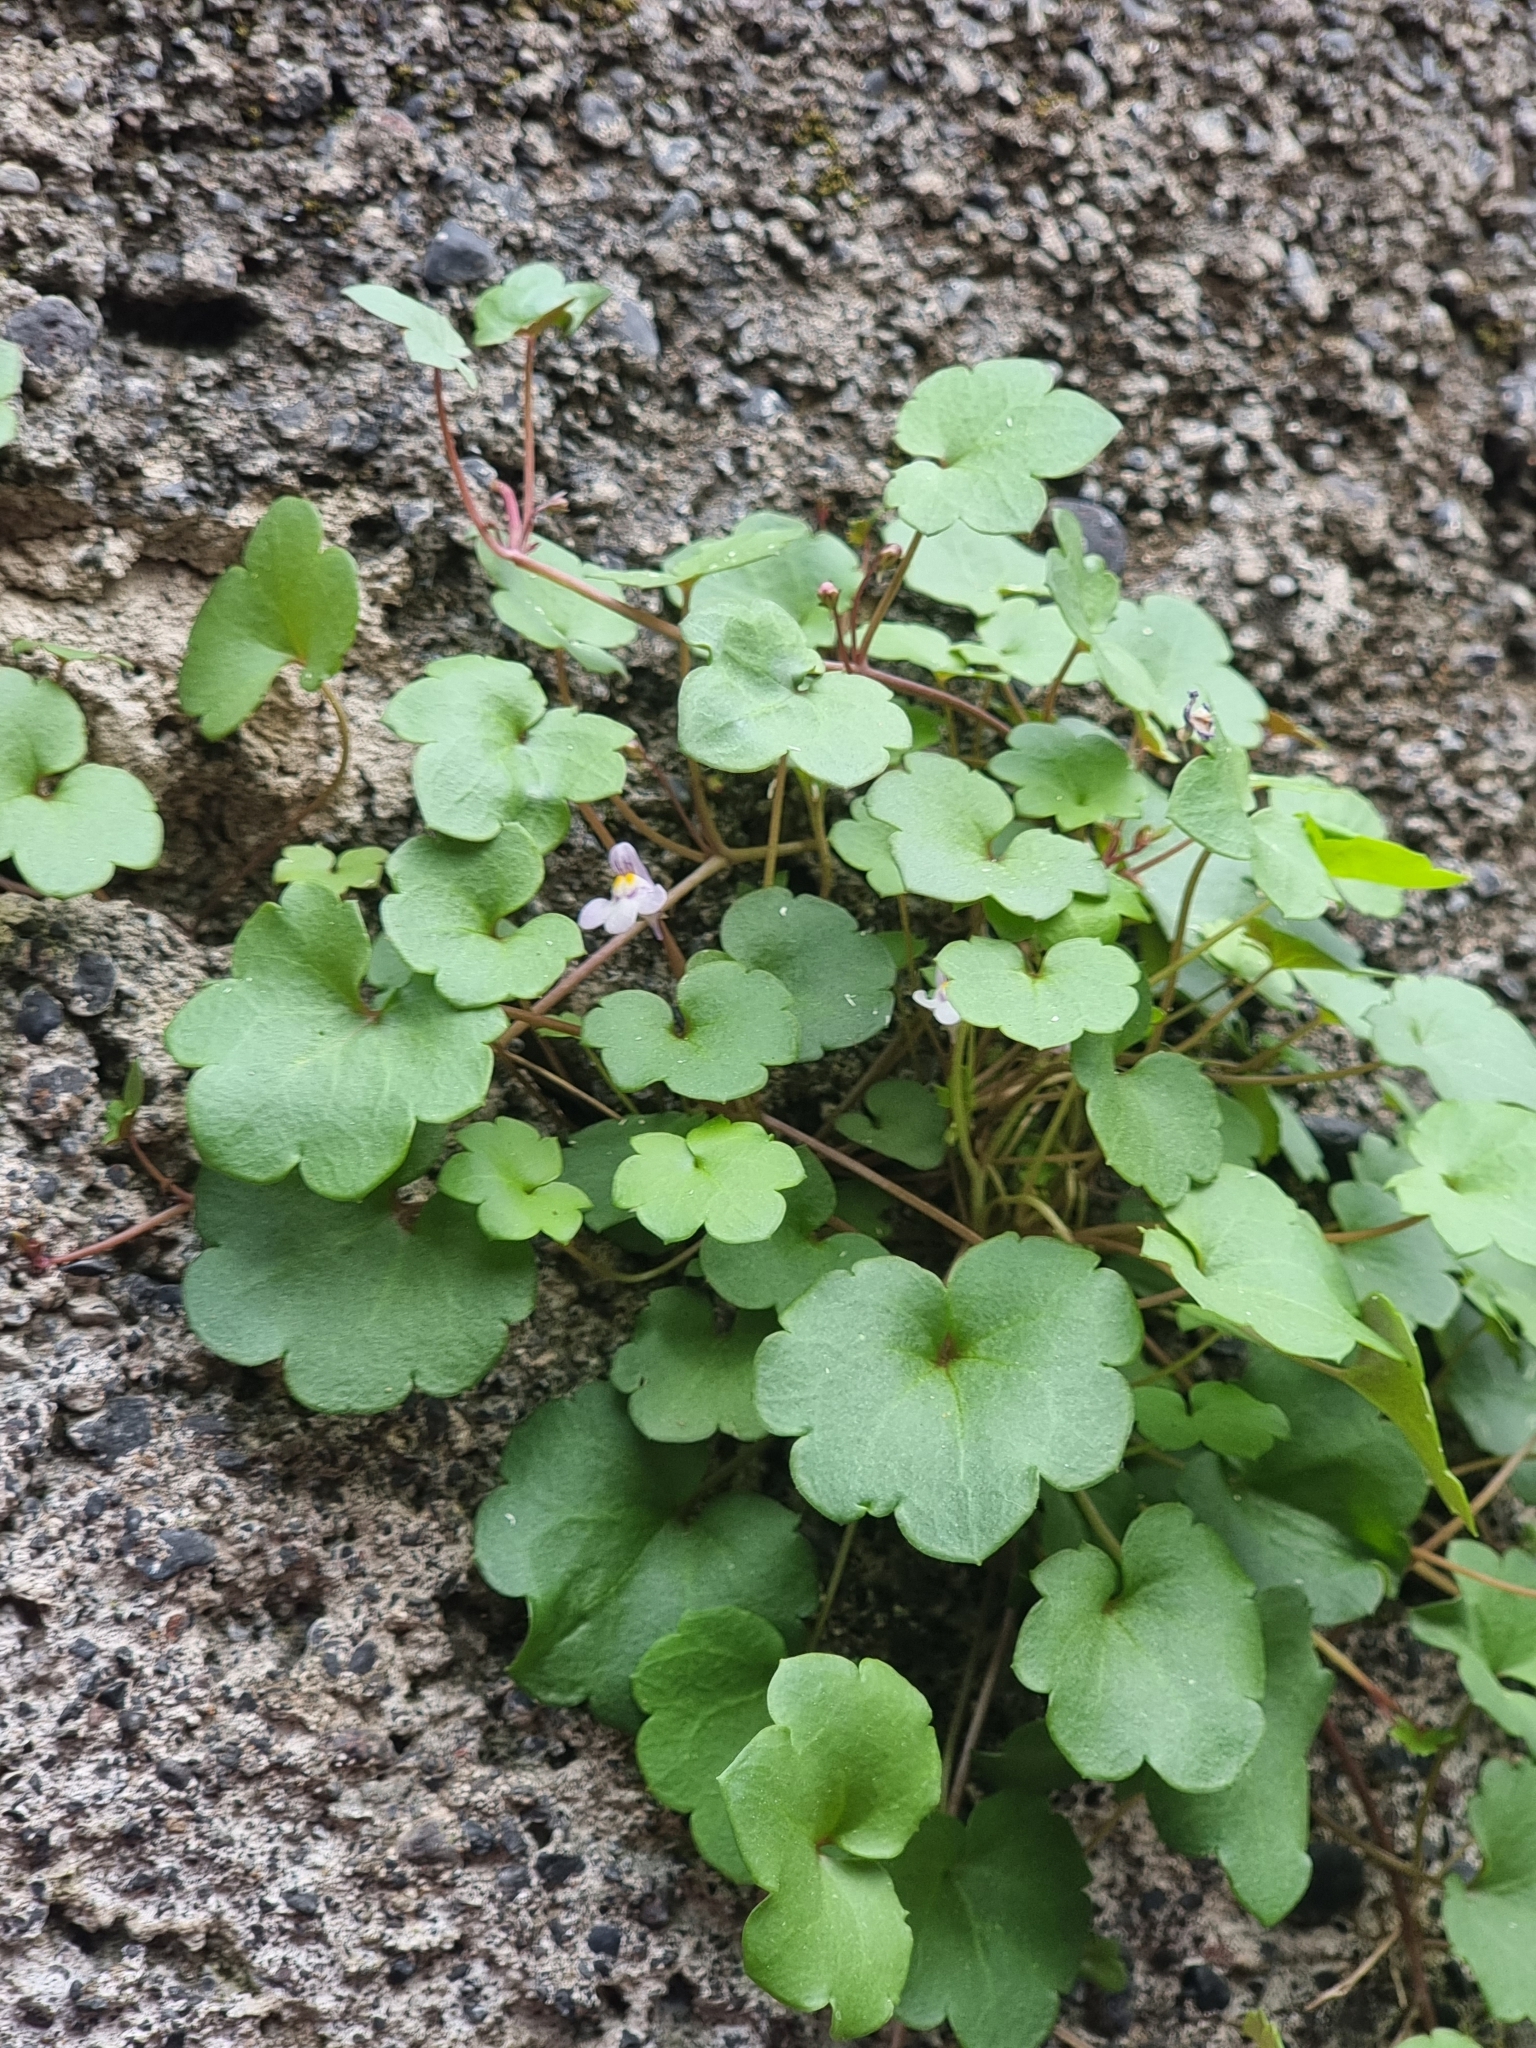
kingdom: Plantae
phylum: Tracheophyta
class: Magnoliopsida
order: Lamiales
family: Plantaginaceae
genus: Cymbalaria
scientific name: Cymbalaria muralis
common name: Ivy-leaved toadflax
